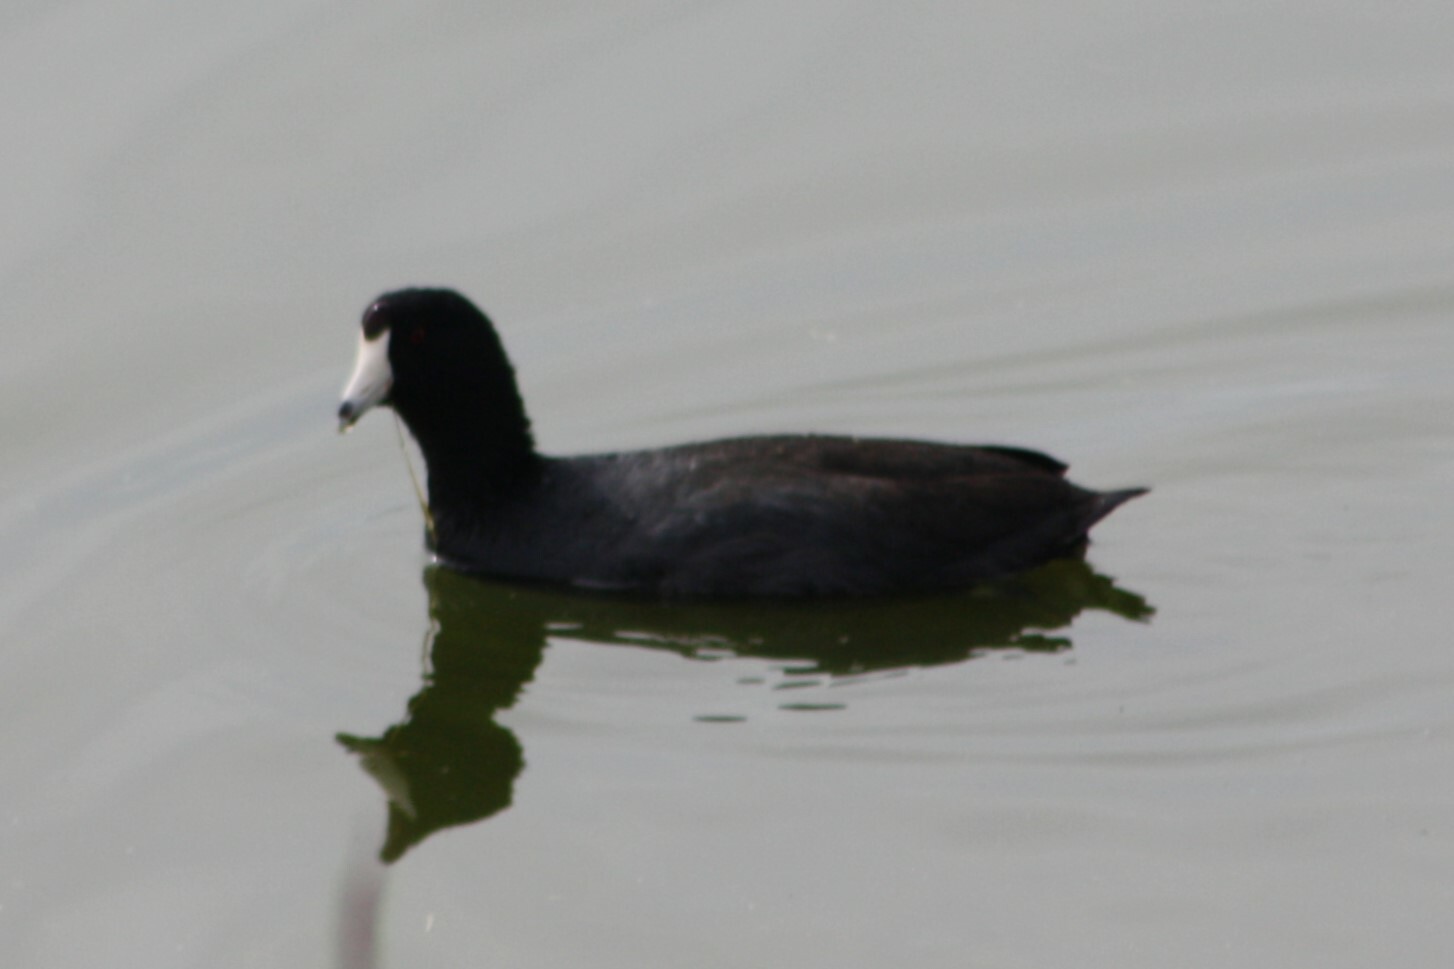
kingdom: Animalia
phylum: Chordata
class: Aves
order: Gruiformes
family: Rallidae
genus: Fulica
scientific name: Fulica americana
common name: American coot
